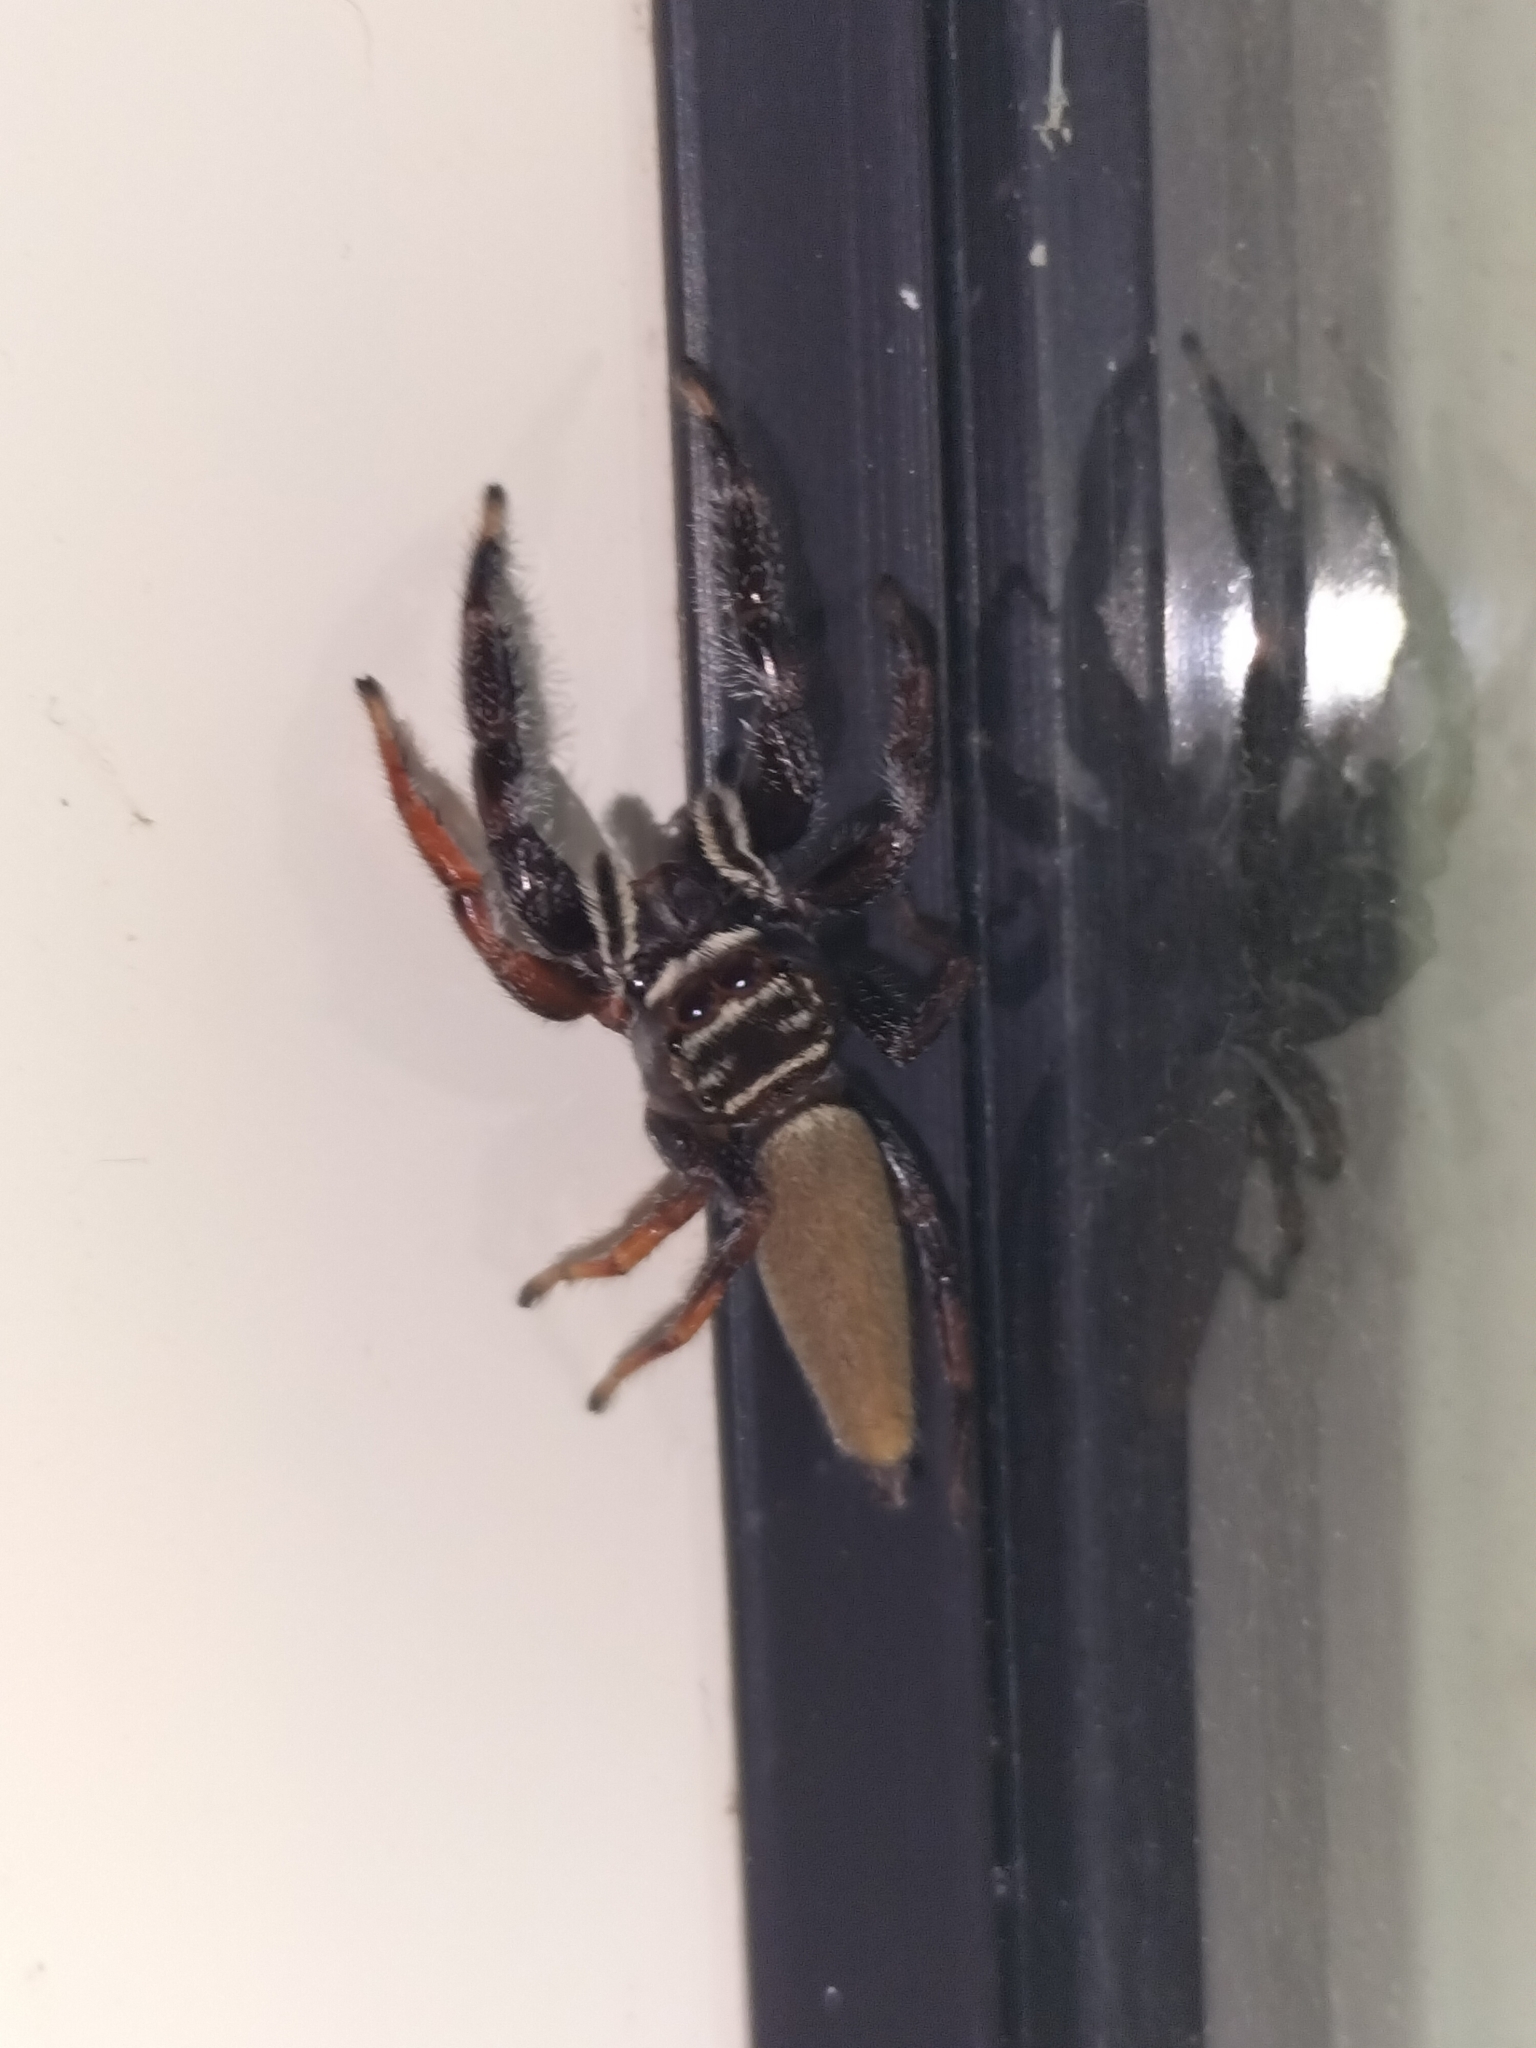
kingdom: Animalia
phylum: Arthropoda
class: Arachnida
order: Araneae
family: Salticidae
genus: Bavia
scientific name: Bavia aericeps
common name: Jumping spider
